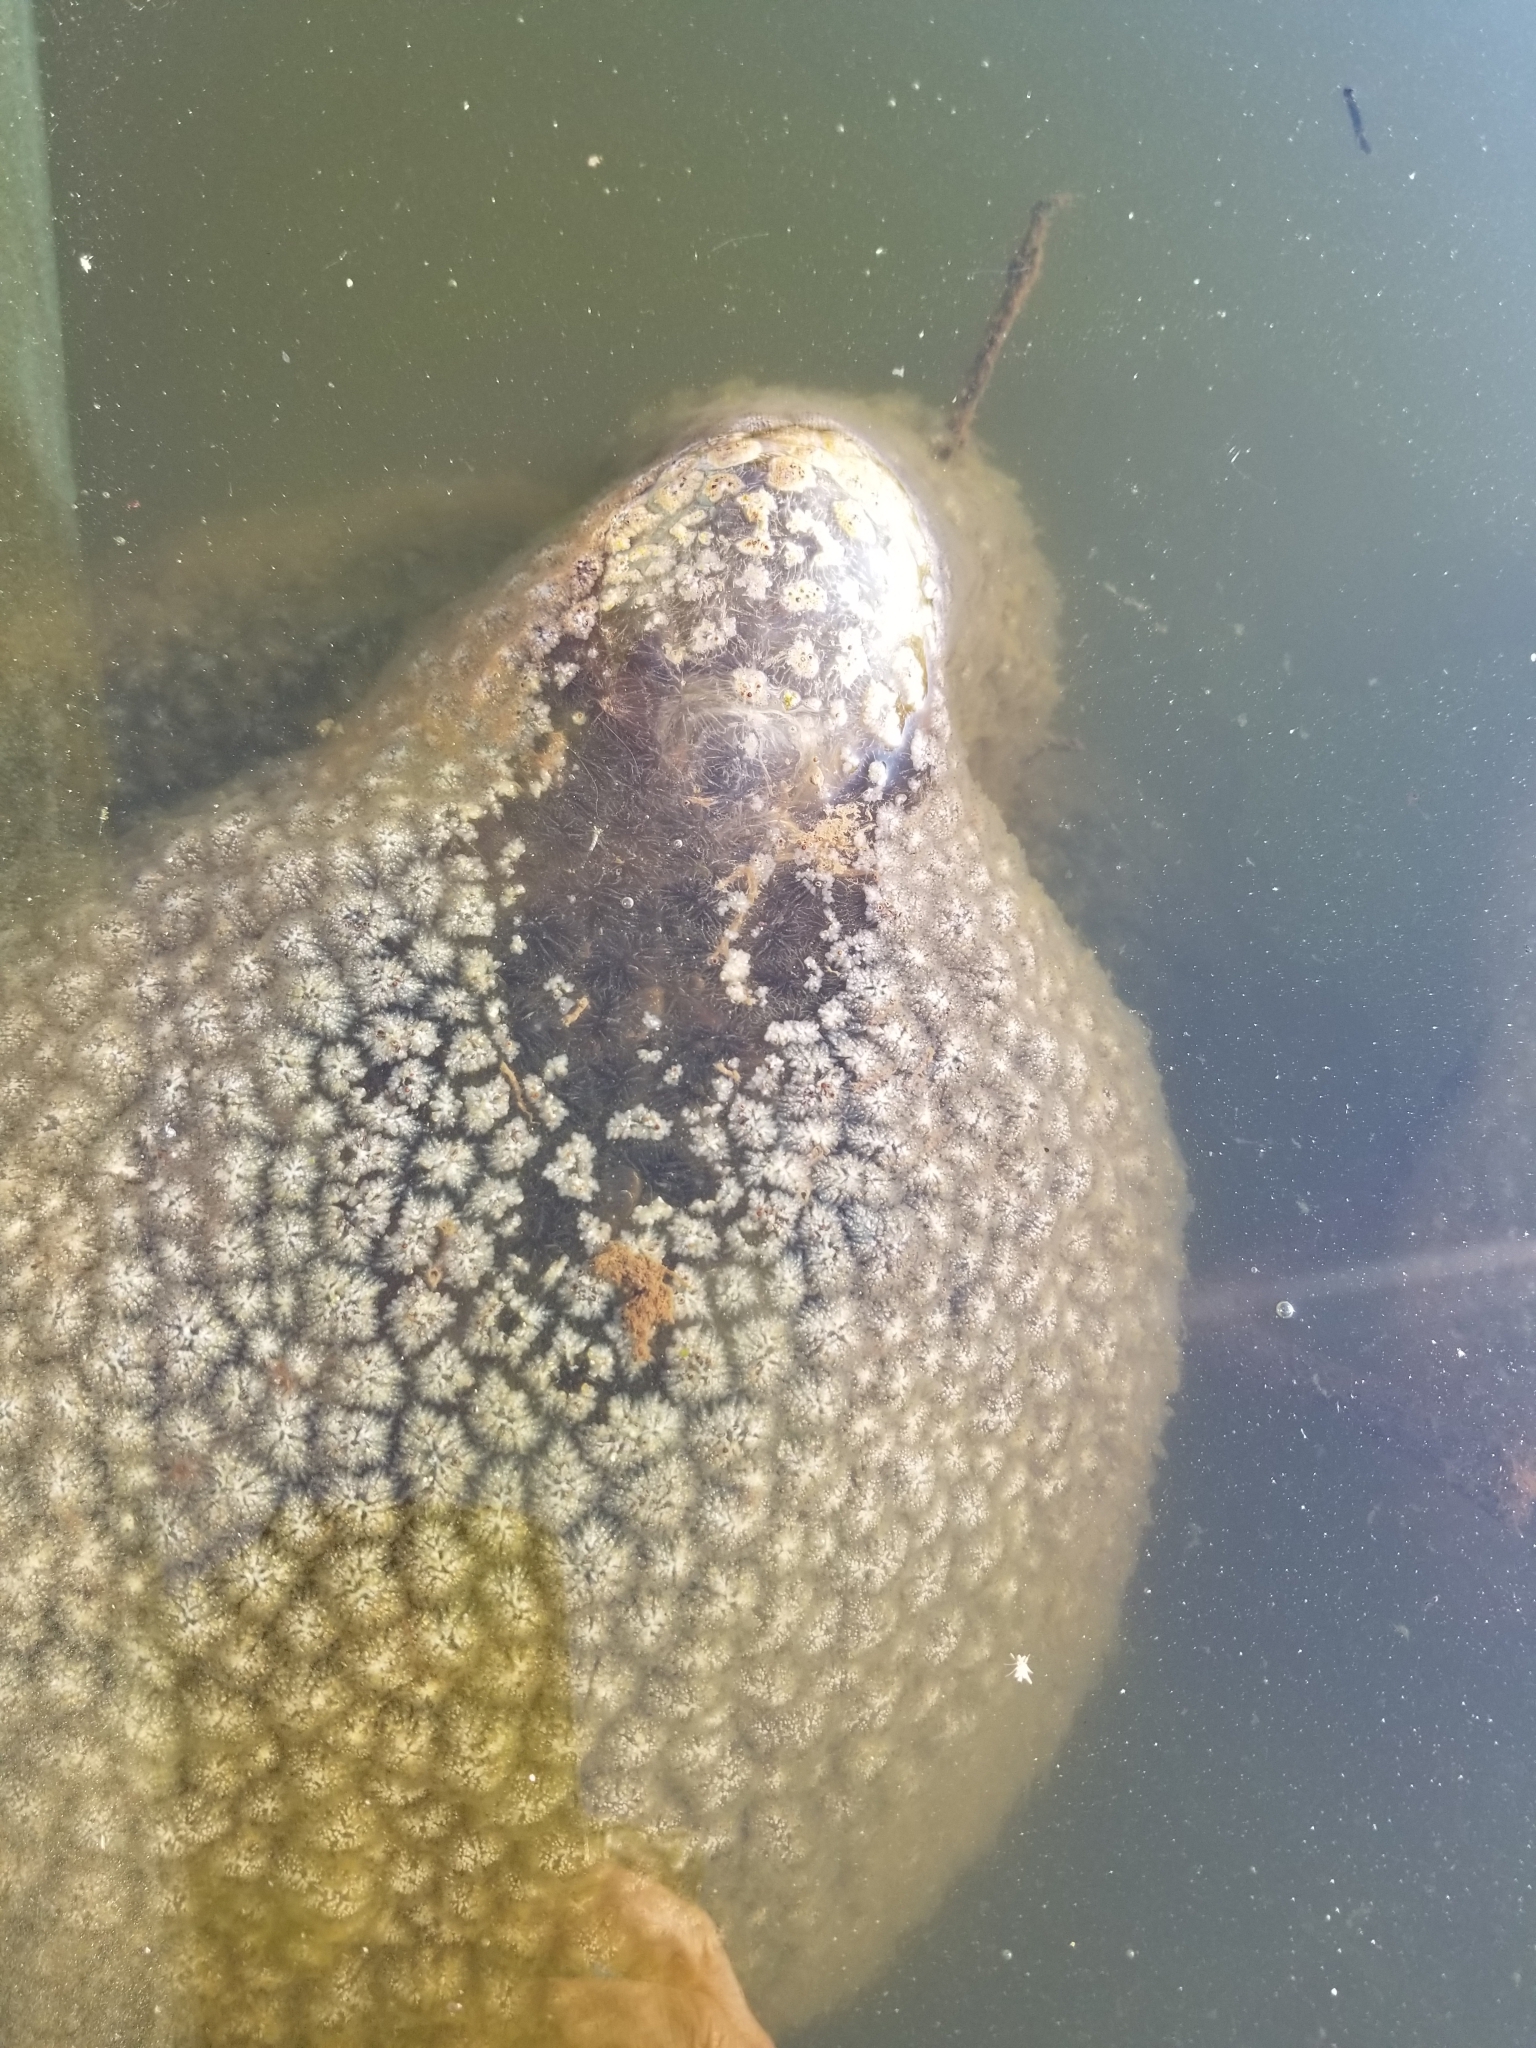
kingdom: Animalia
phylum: Bryozoa
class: Phylactolaemata
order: Plumatellida
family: Pectinatellidae
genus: Pectinatella
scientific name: Pectinatella magnifica
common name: Magnificent bryozoan
